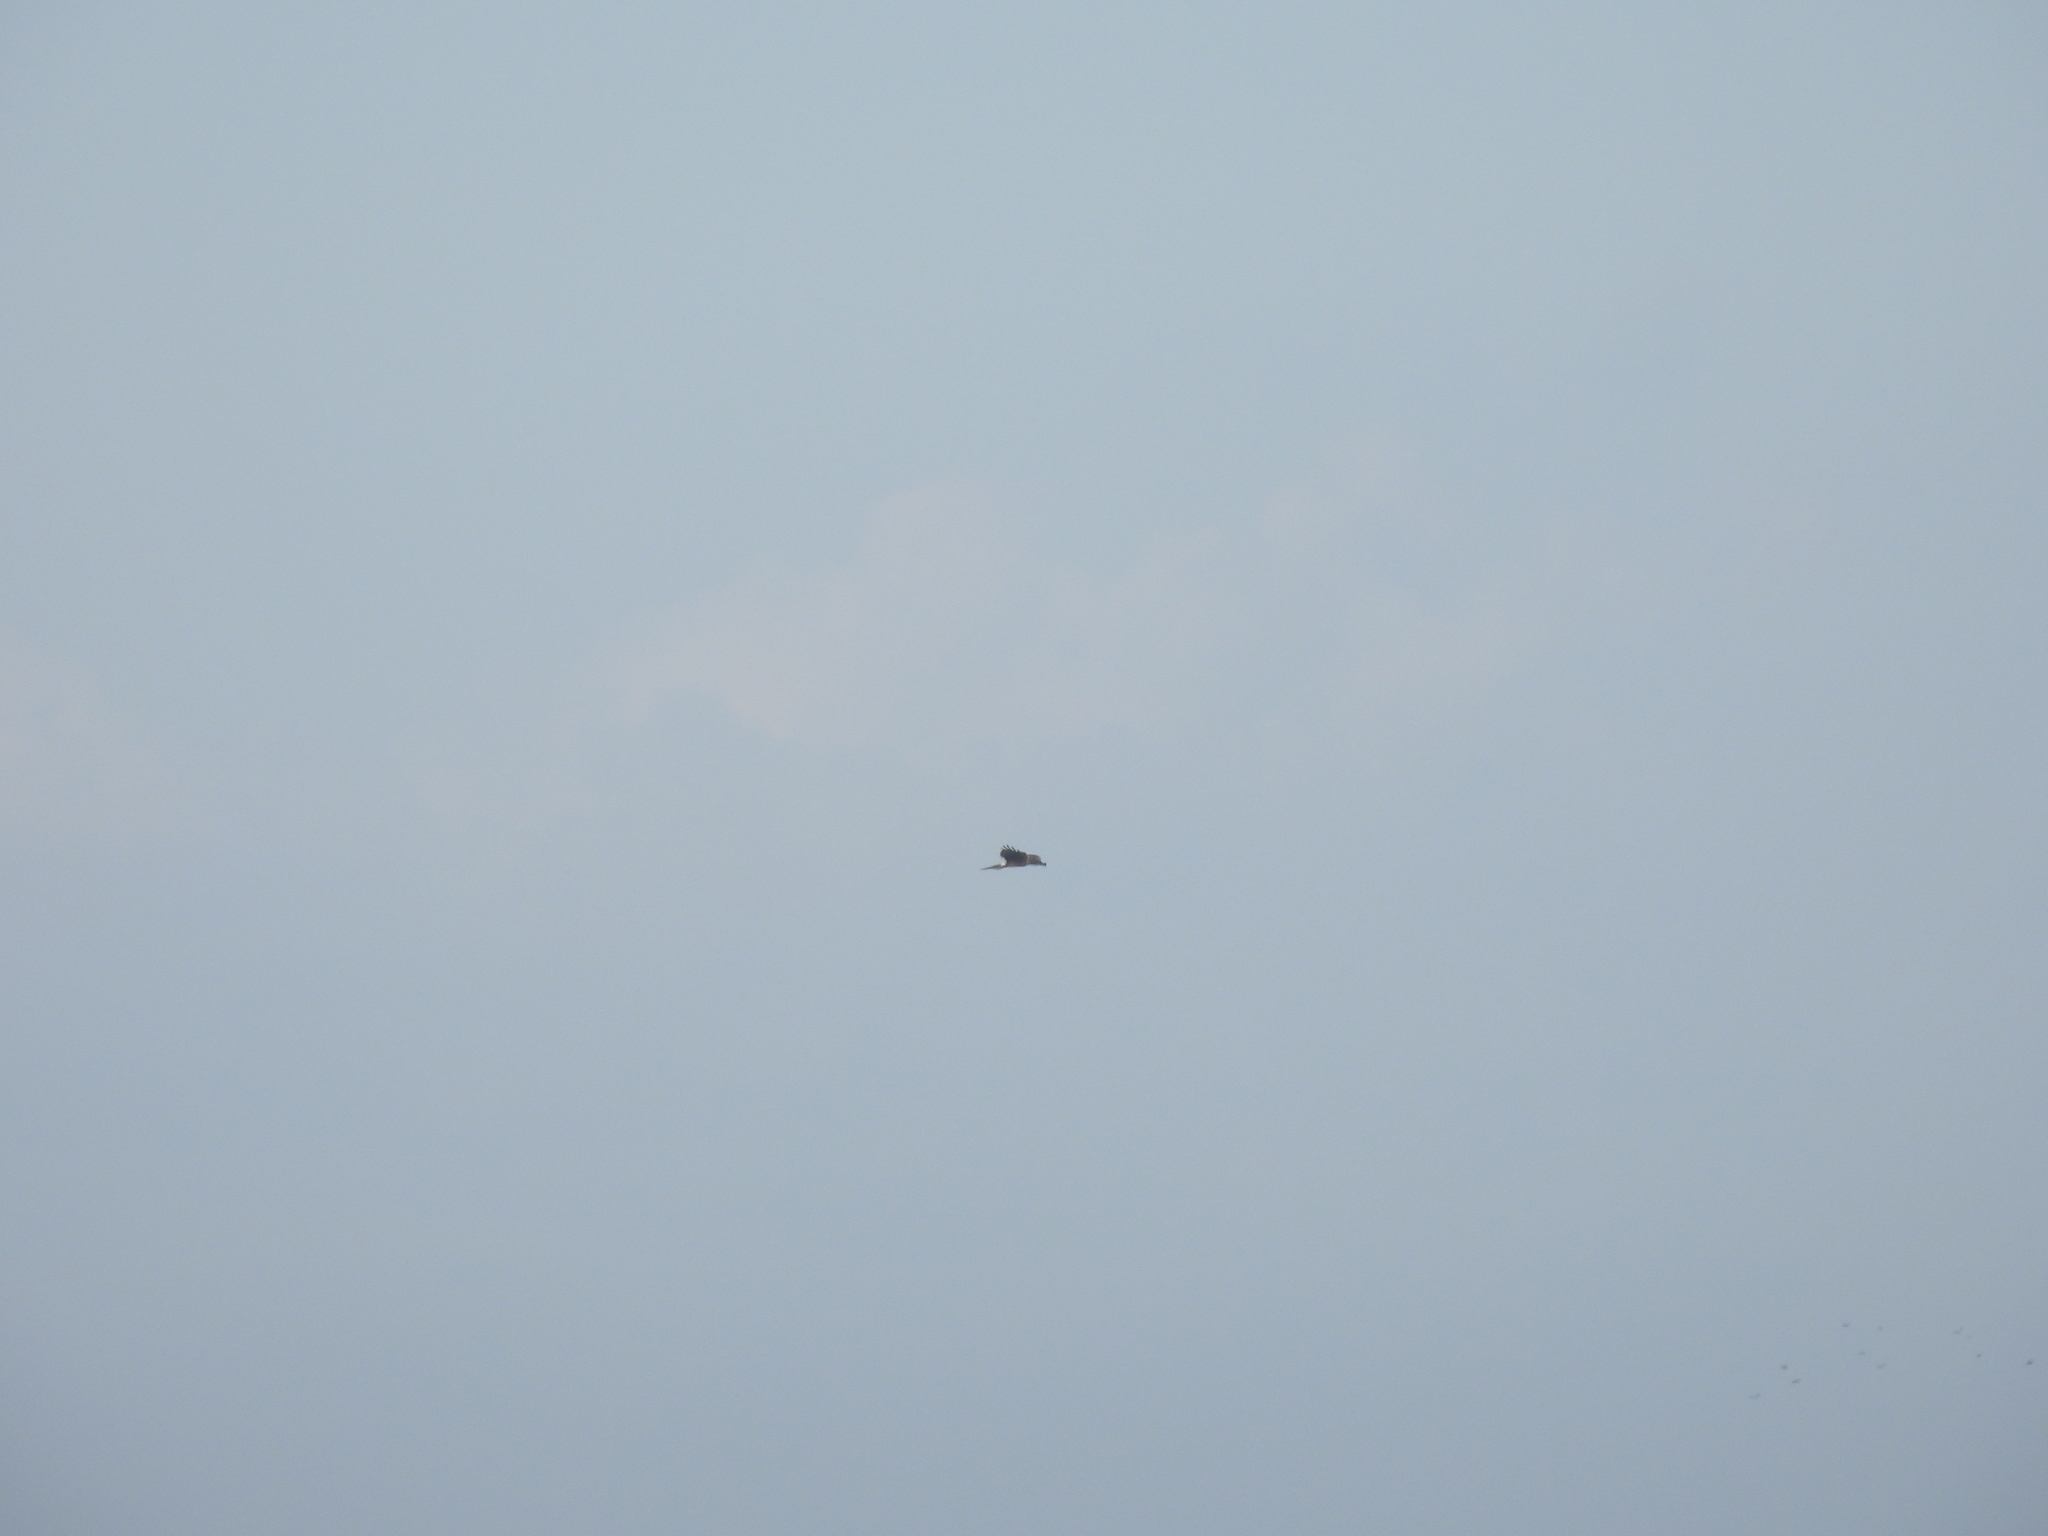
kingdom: Animalia
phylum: Chordata
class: Aves
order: Accipitriformes
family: Accipitridae
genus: Circus
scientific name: Circus cyaneus
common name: Hen harrier
